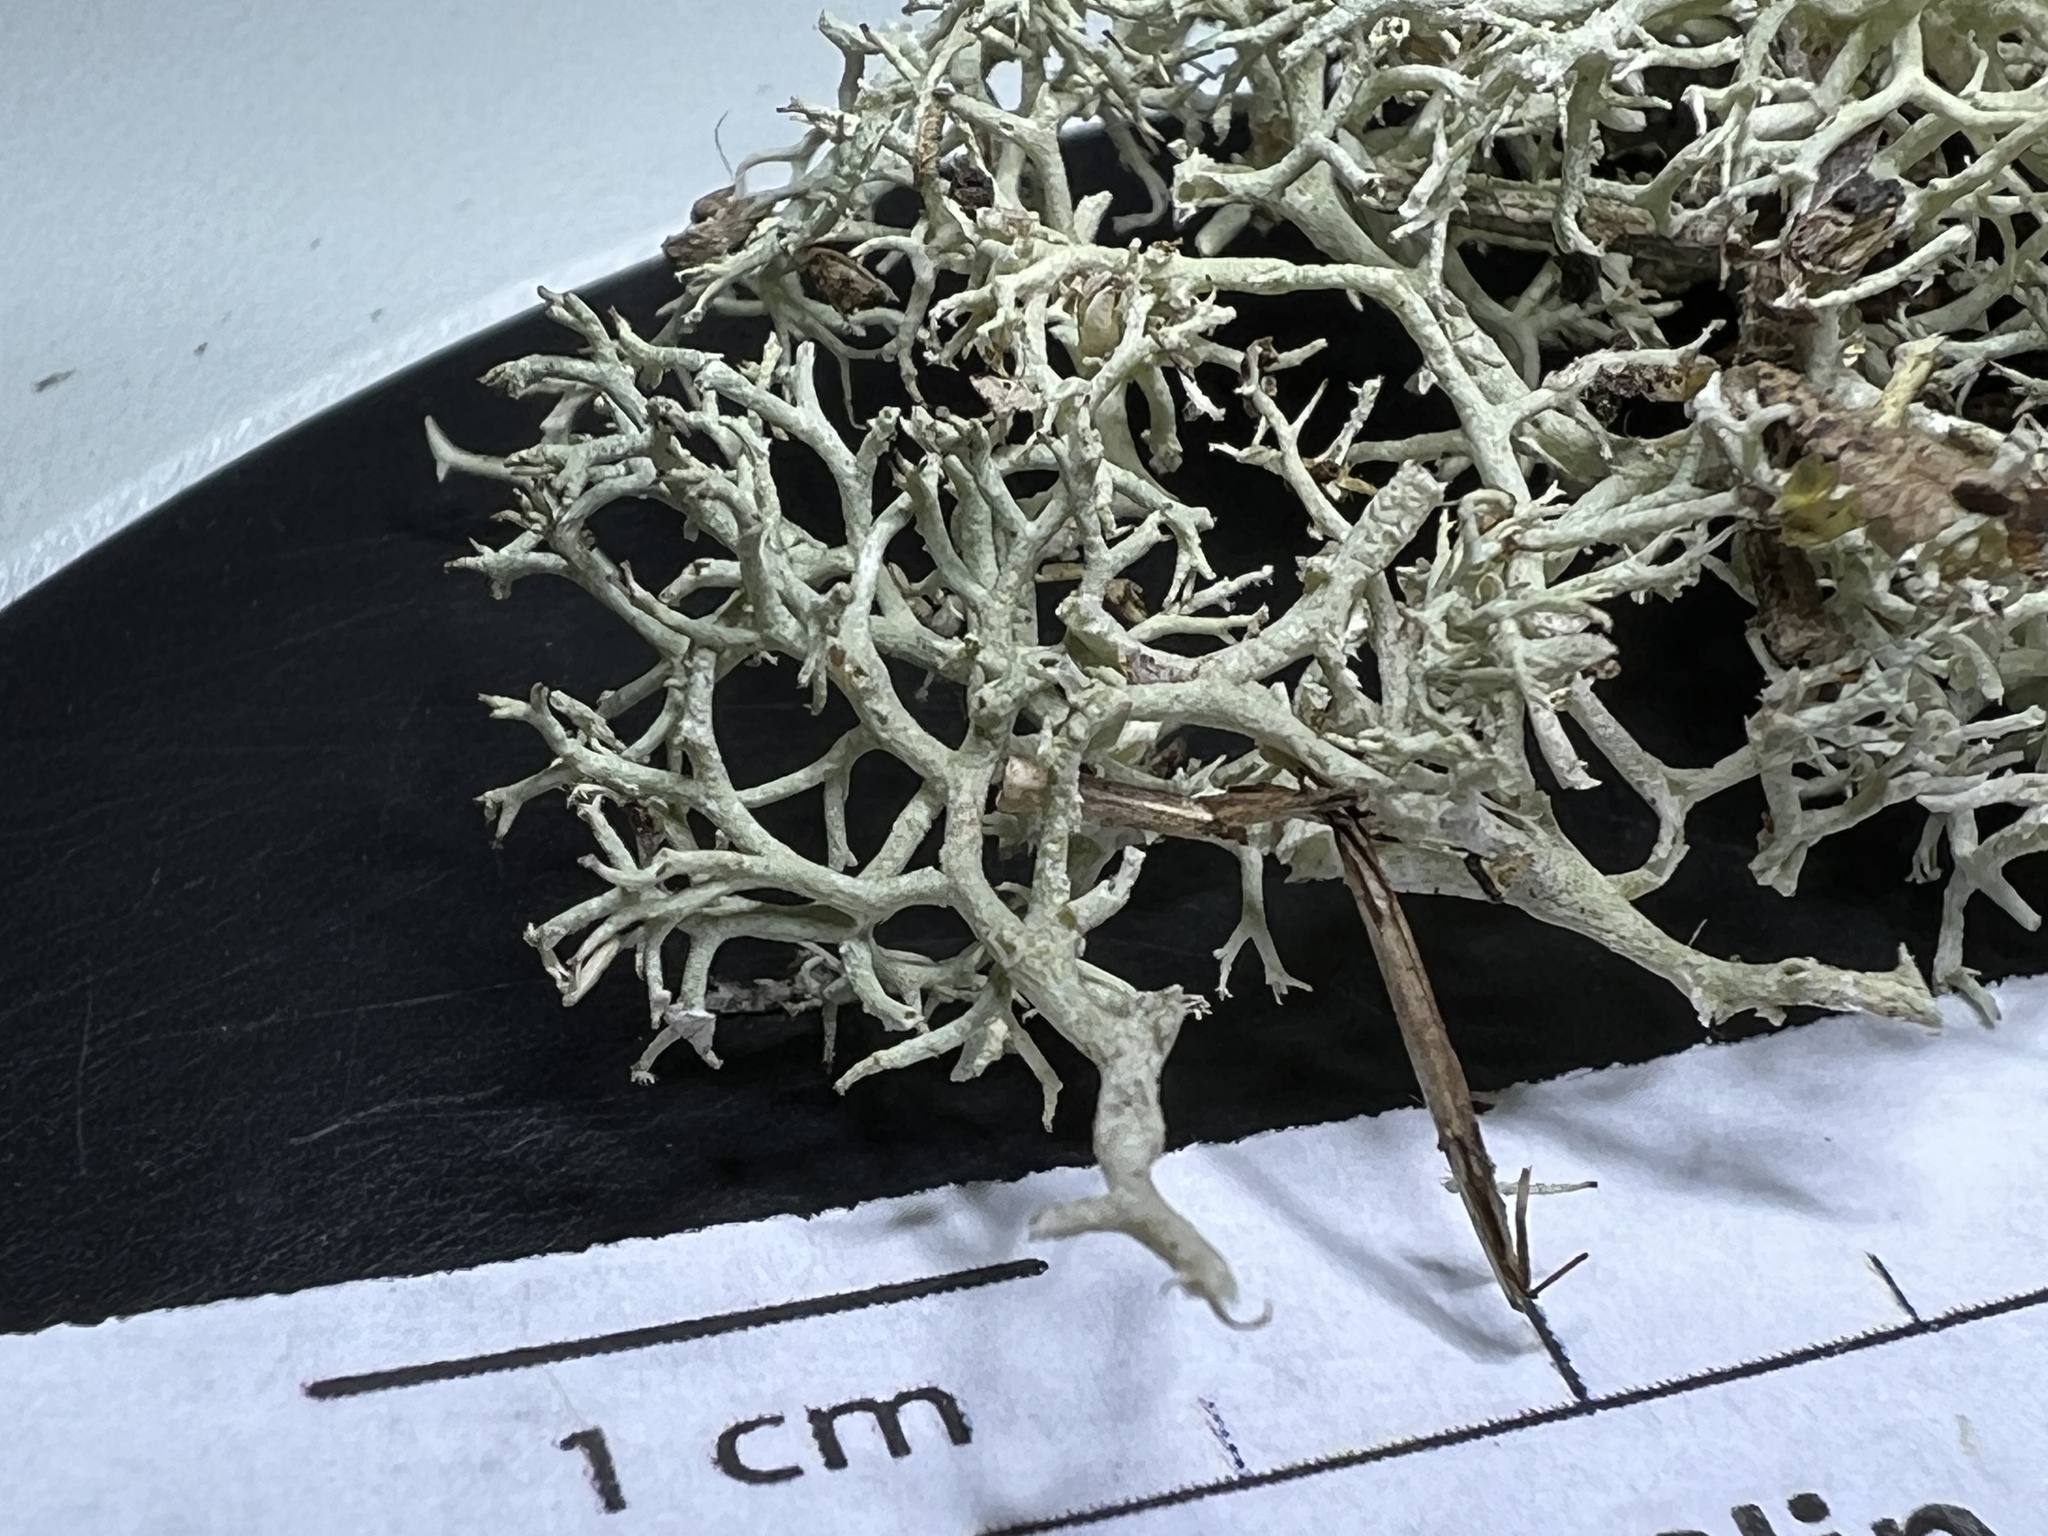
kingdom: Fungi
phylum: Ascomycota
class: Lecanoromycetes
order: Lecanorales
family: Cladoniaceae
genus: Cladonia
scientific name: Cladonia rangiferina
